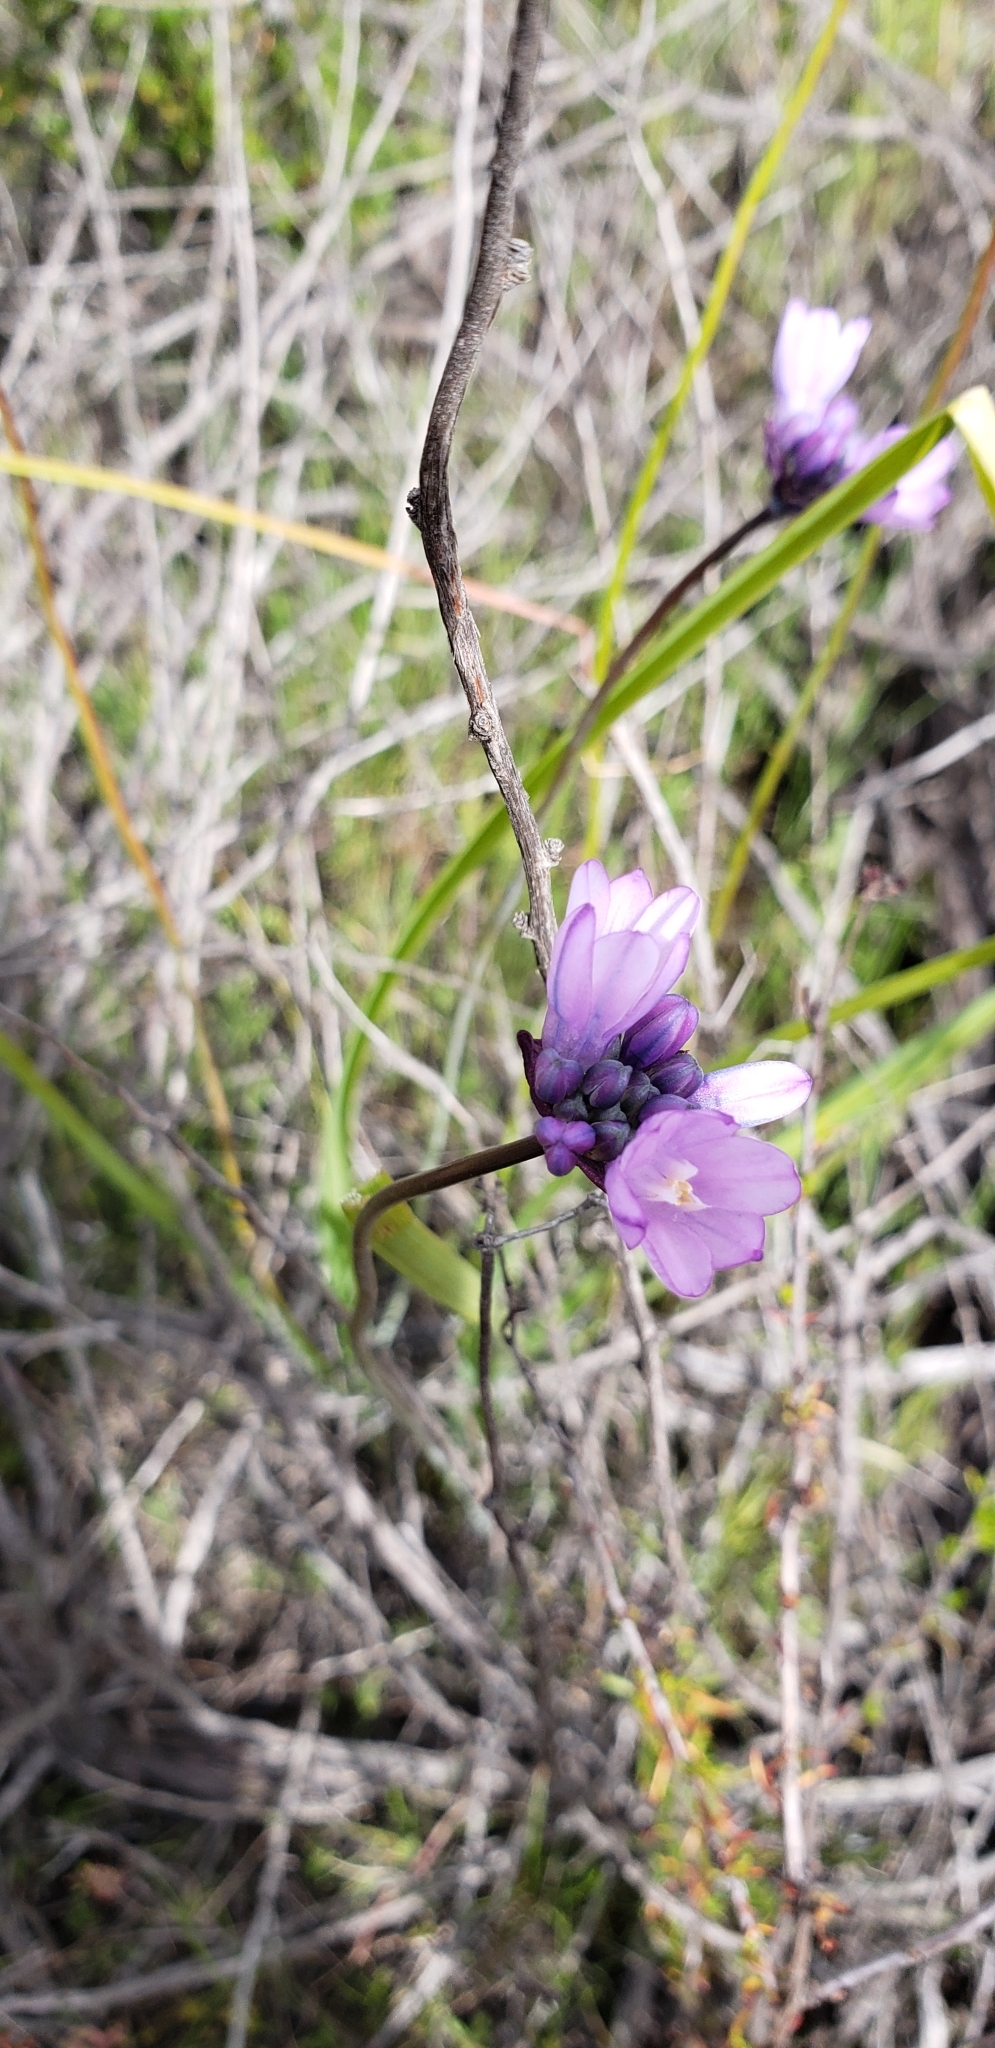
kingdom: Plantae
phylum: Tracheophyta
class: Liliopsida
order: Asparagales
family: Asparagaceae
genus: Dipterostemon
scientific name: Dipterostemon capitatus
